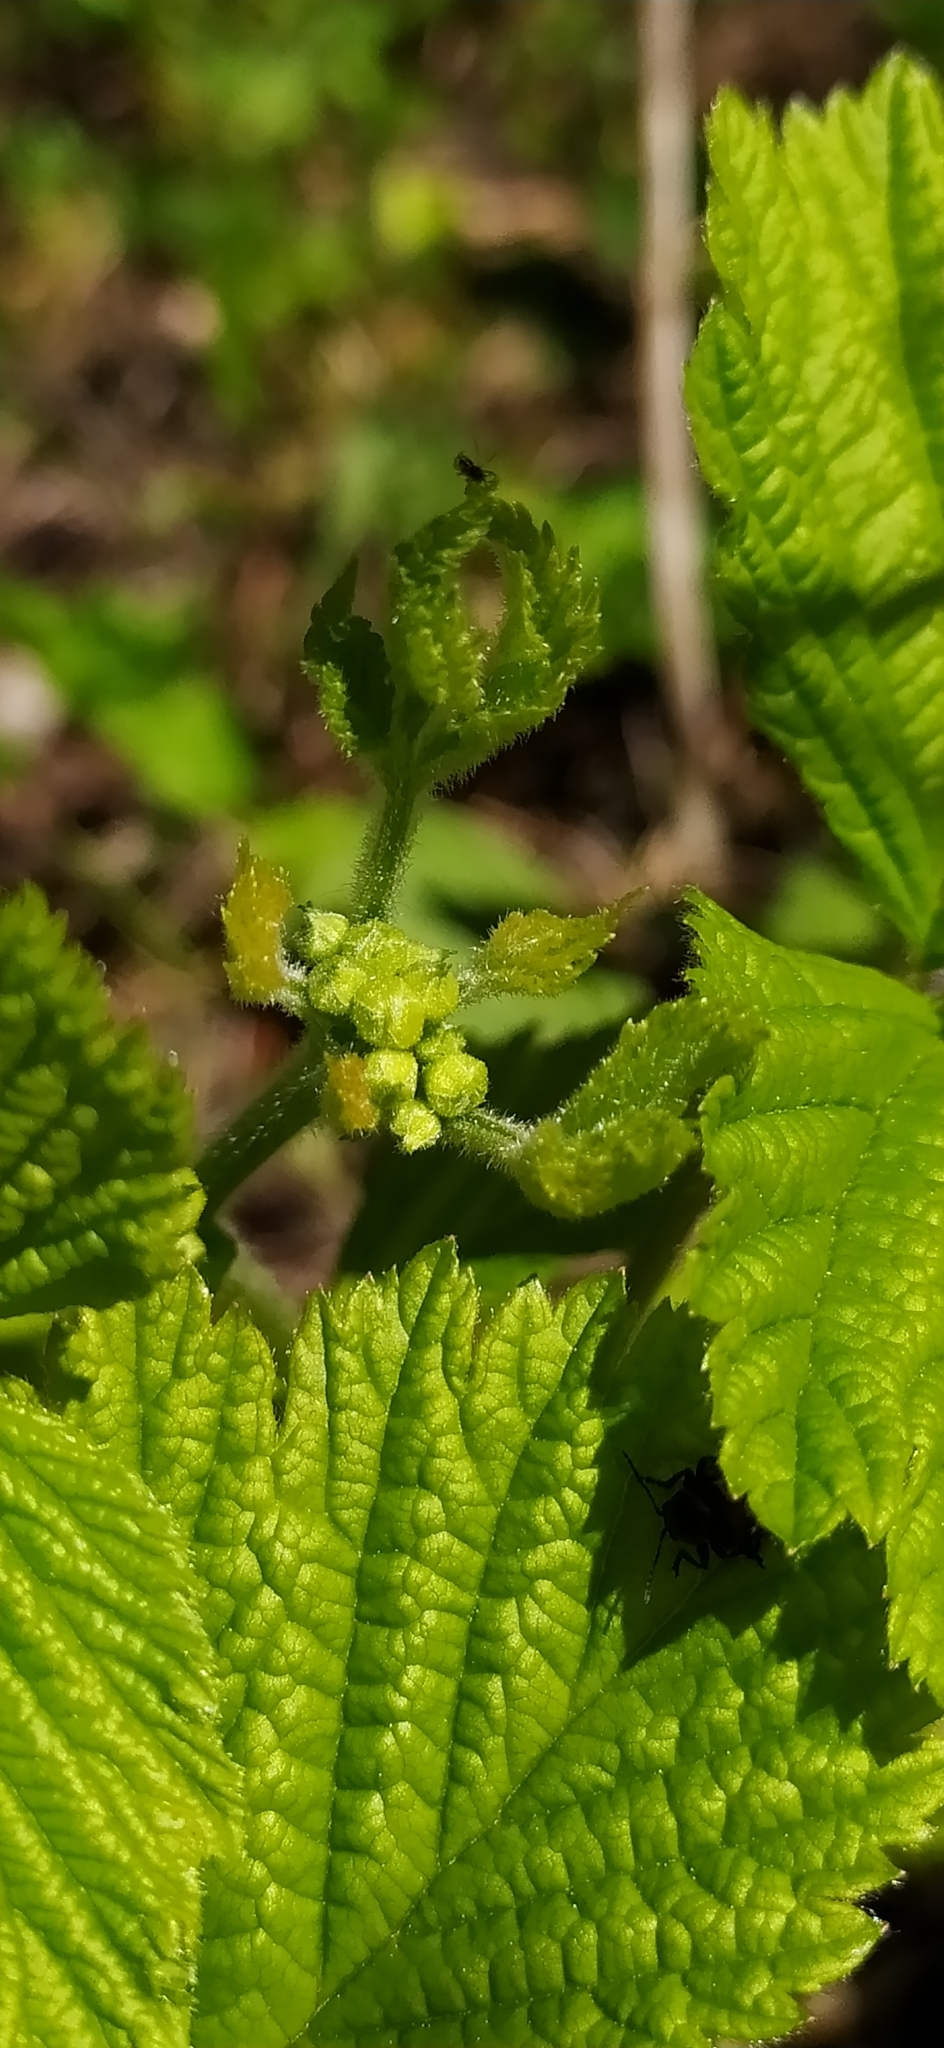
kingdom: Plantae
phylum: Tracheophyta
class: Magnoliopsida
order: Rosales
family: Rosaceae
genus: Rubus
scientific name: Rubus saxatilis
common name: Stone bramble
